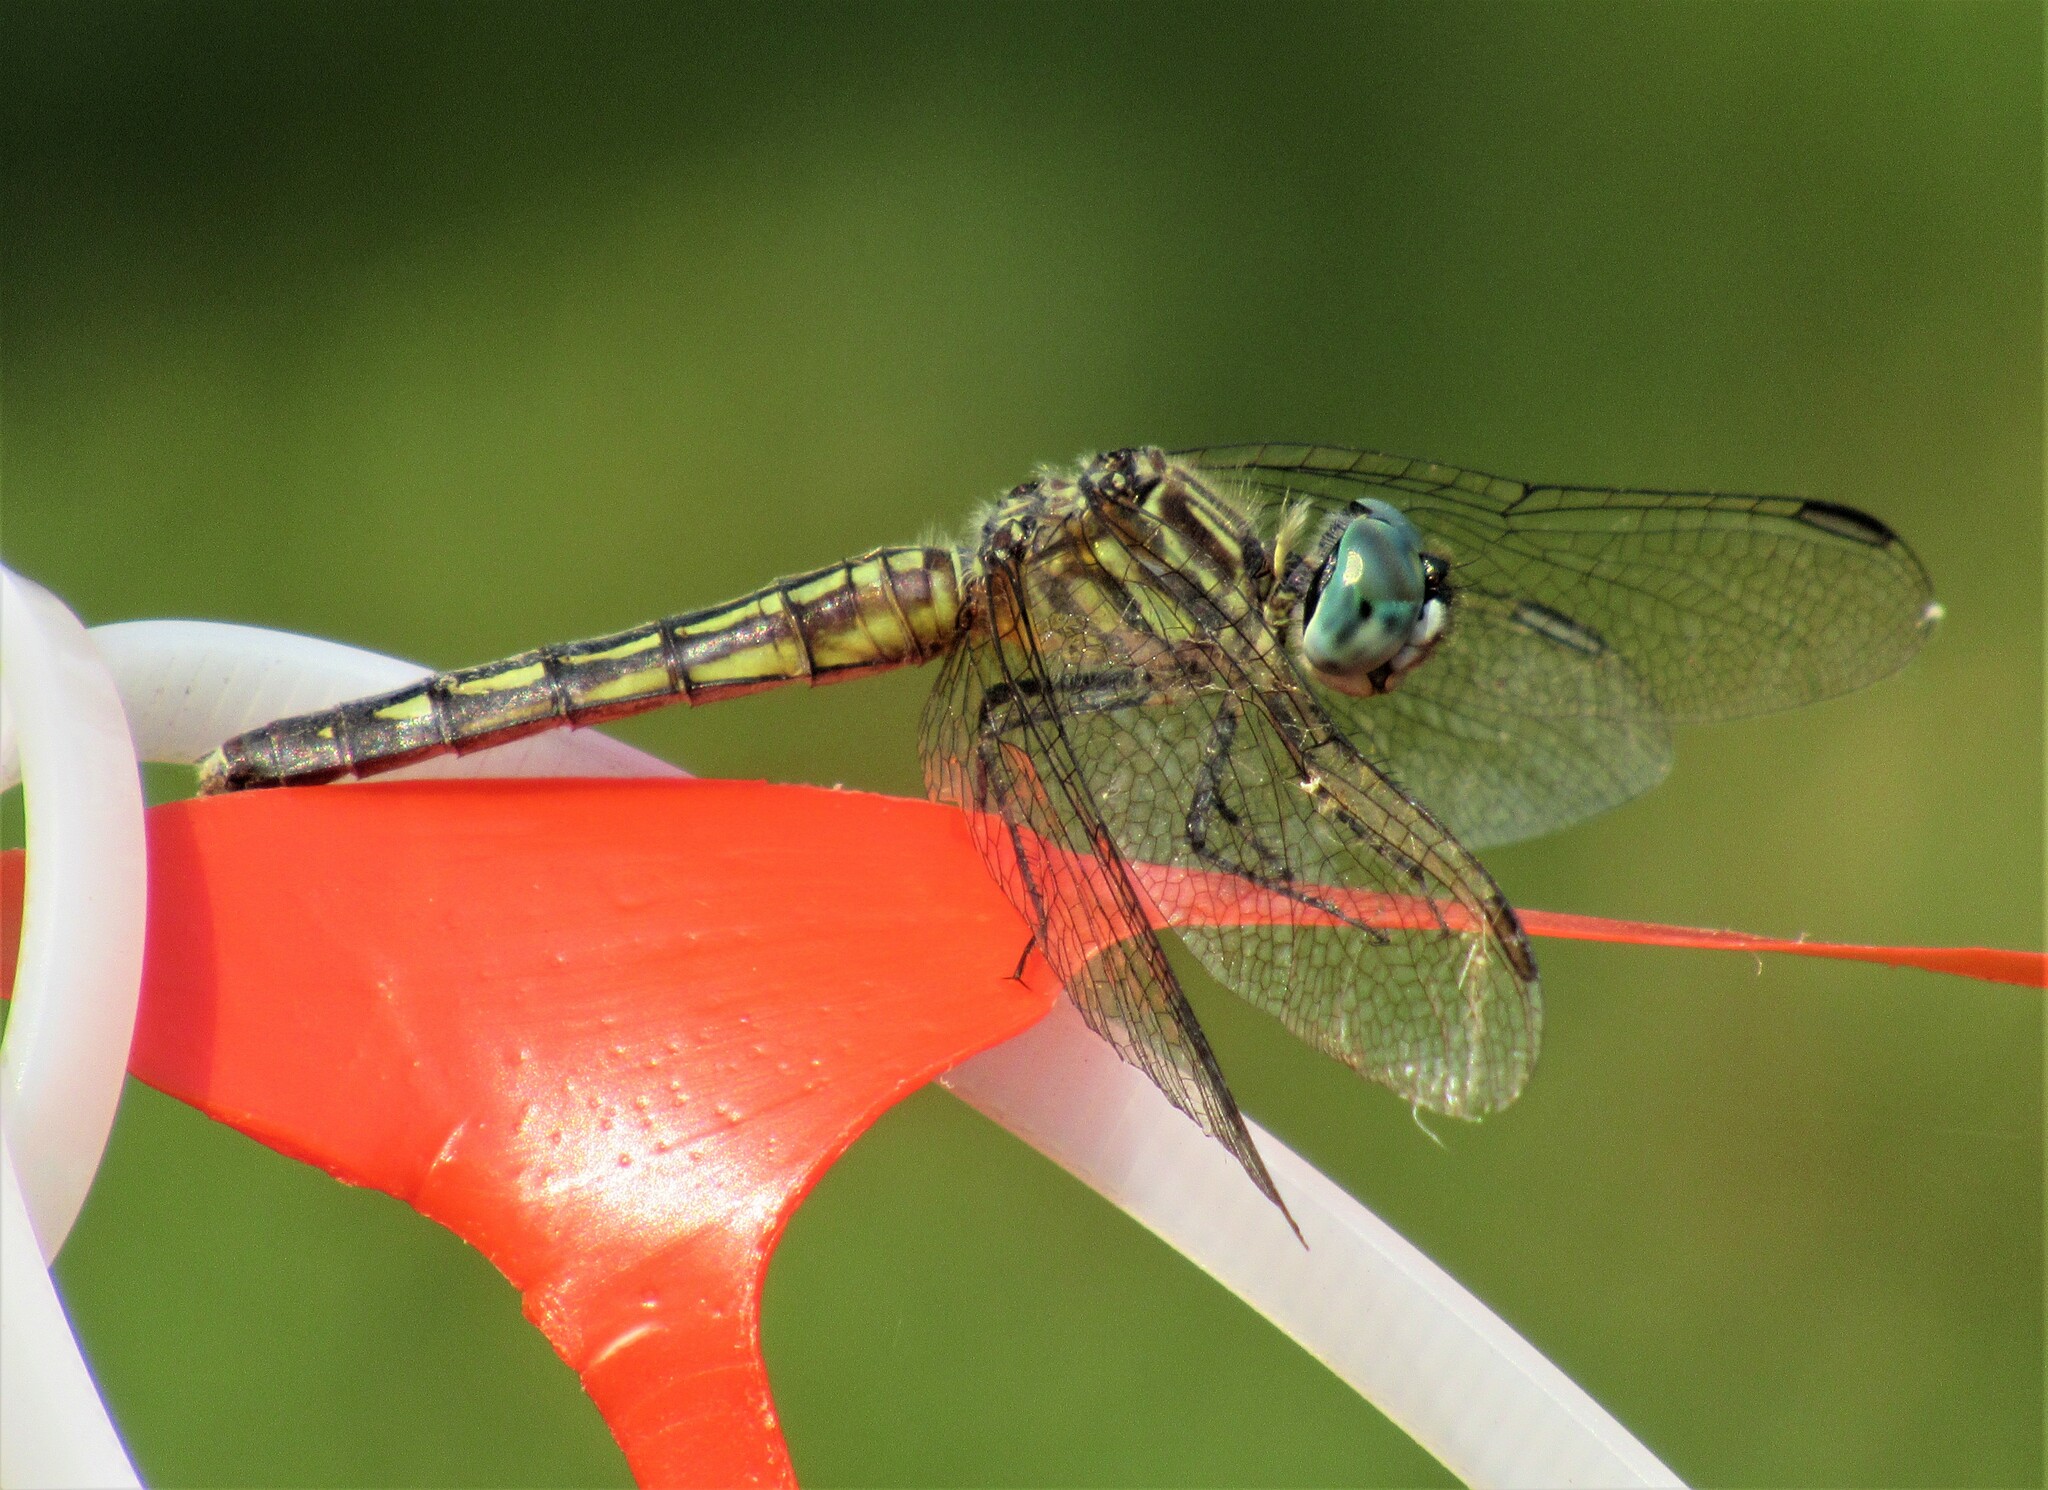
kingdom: Animalia
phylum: Arthropoda
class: Insecta
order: Odonata
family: Libellulidae
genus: Pachydiplax
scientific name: Pachydiplax longipennis
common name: Blue dasher
